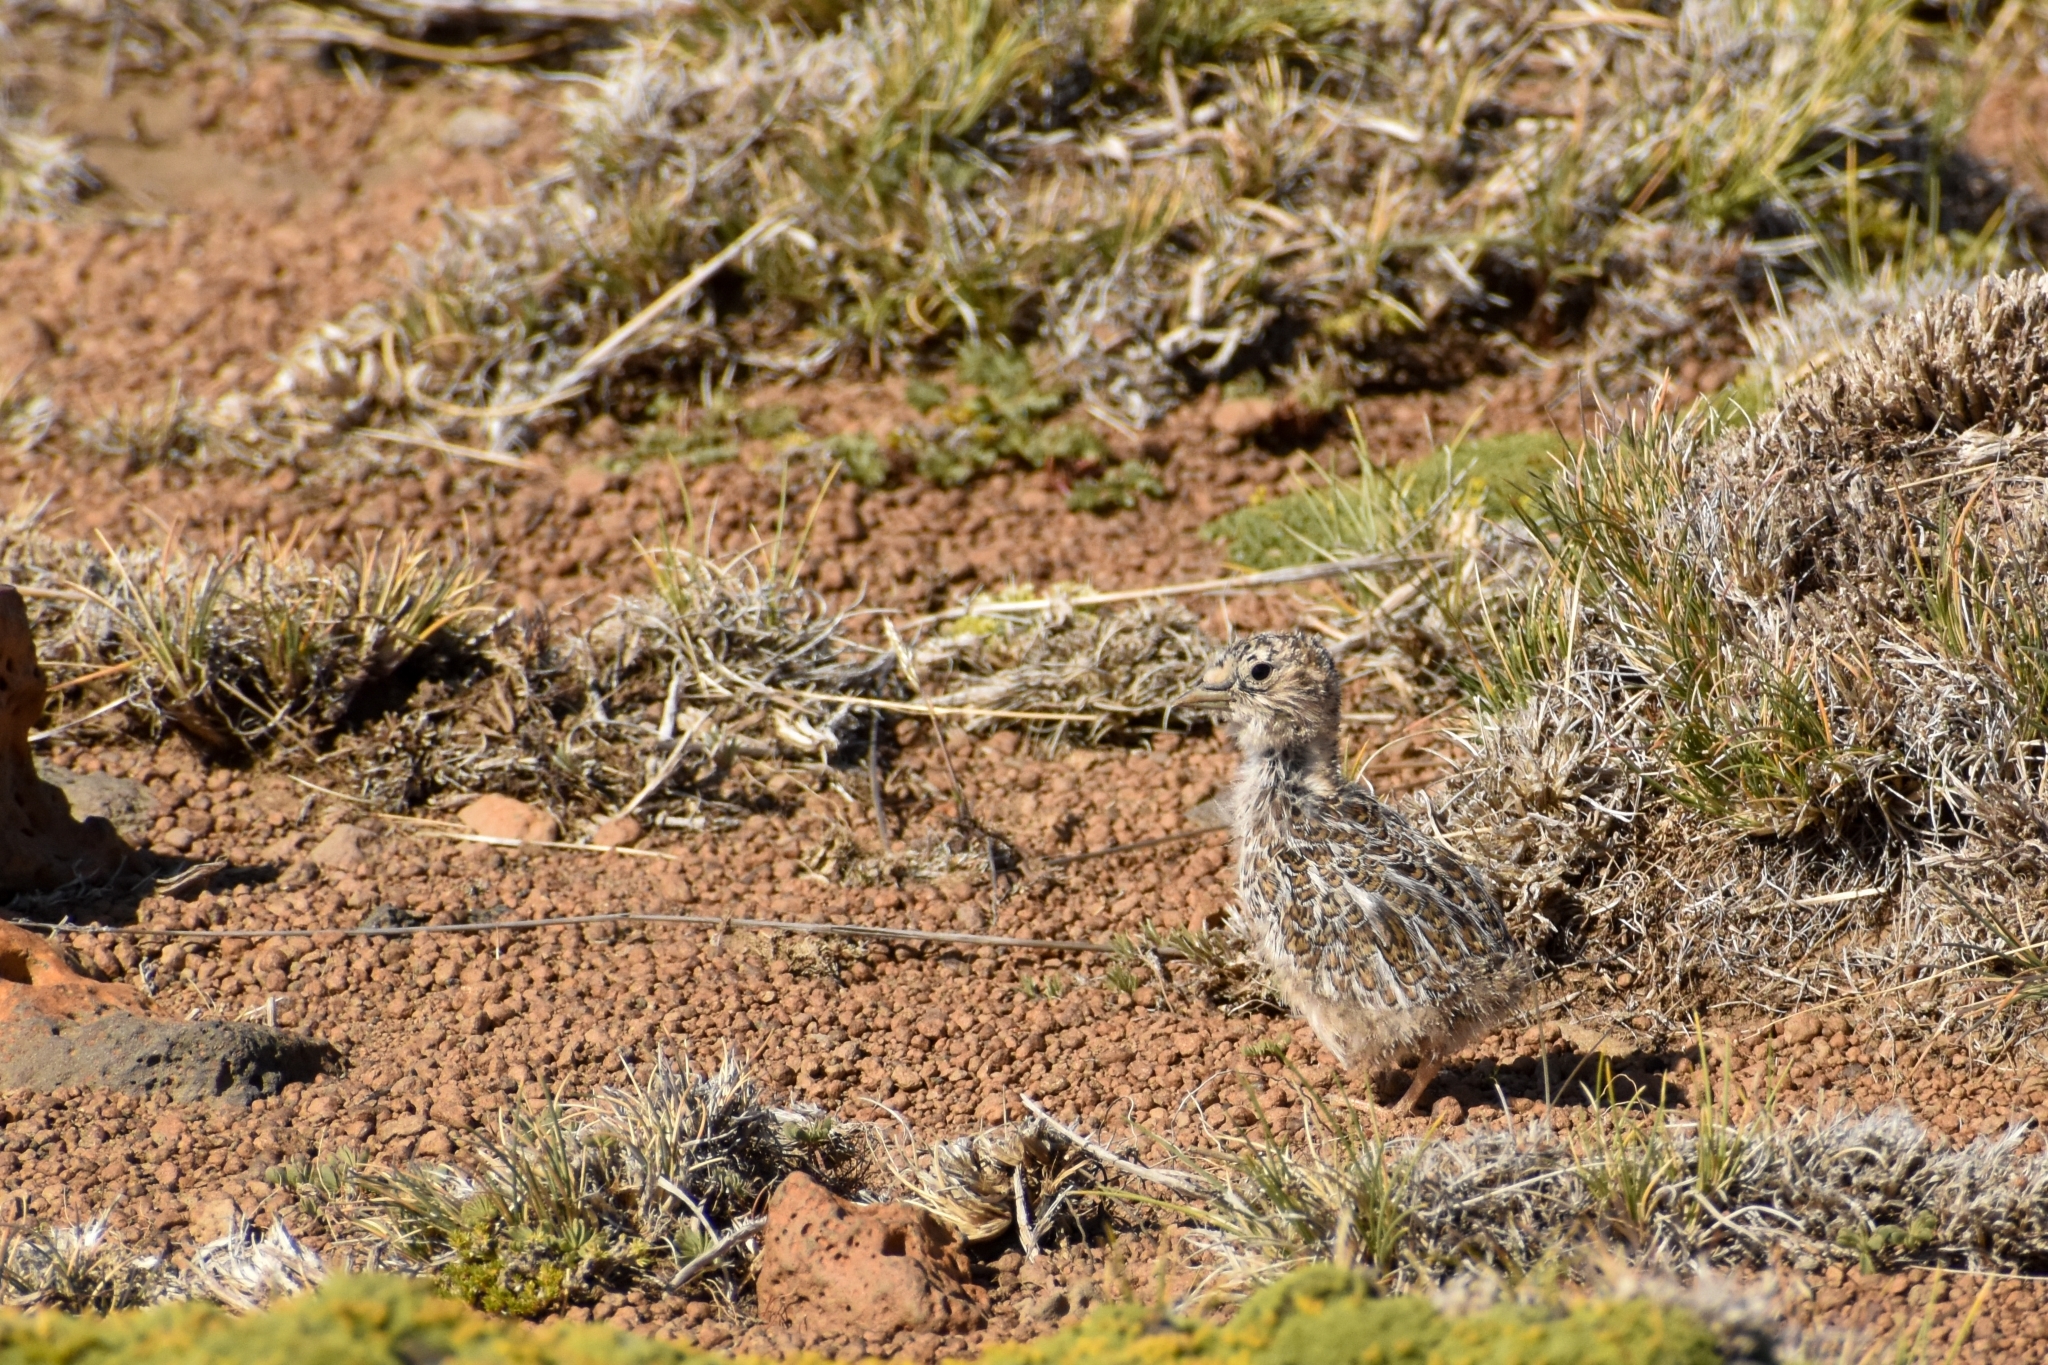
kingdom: Animalia
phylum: Chordata
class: Aves
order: Charadriiformes
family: Thinocoridae
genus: Thinocorus
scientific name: Thinocorus rumicivorus
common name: Least seedsnipe
